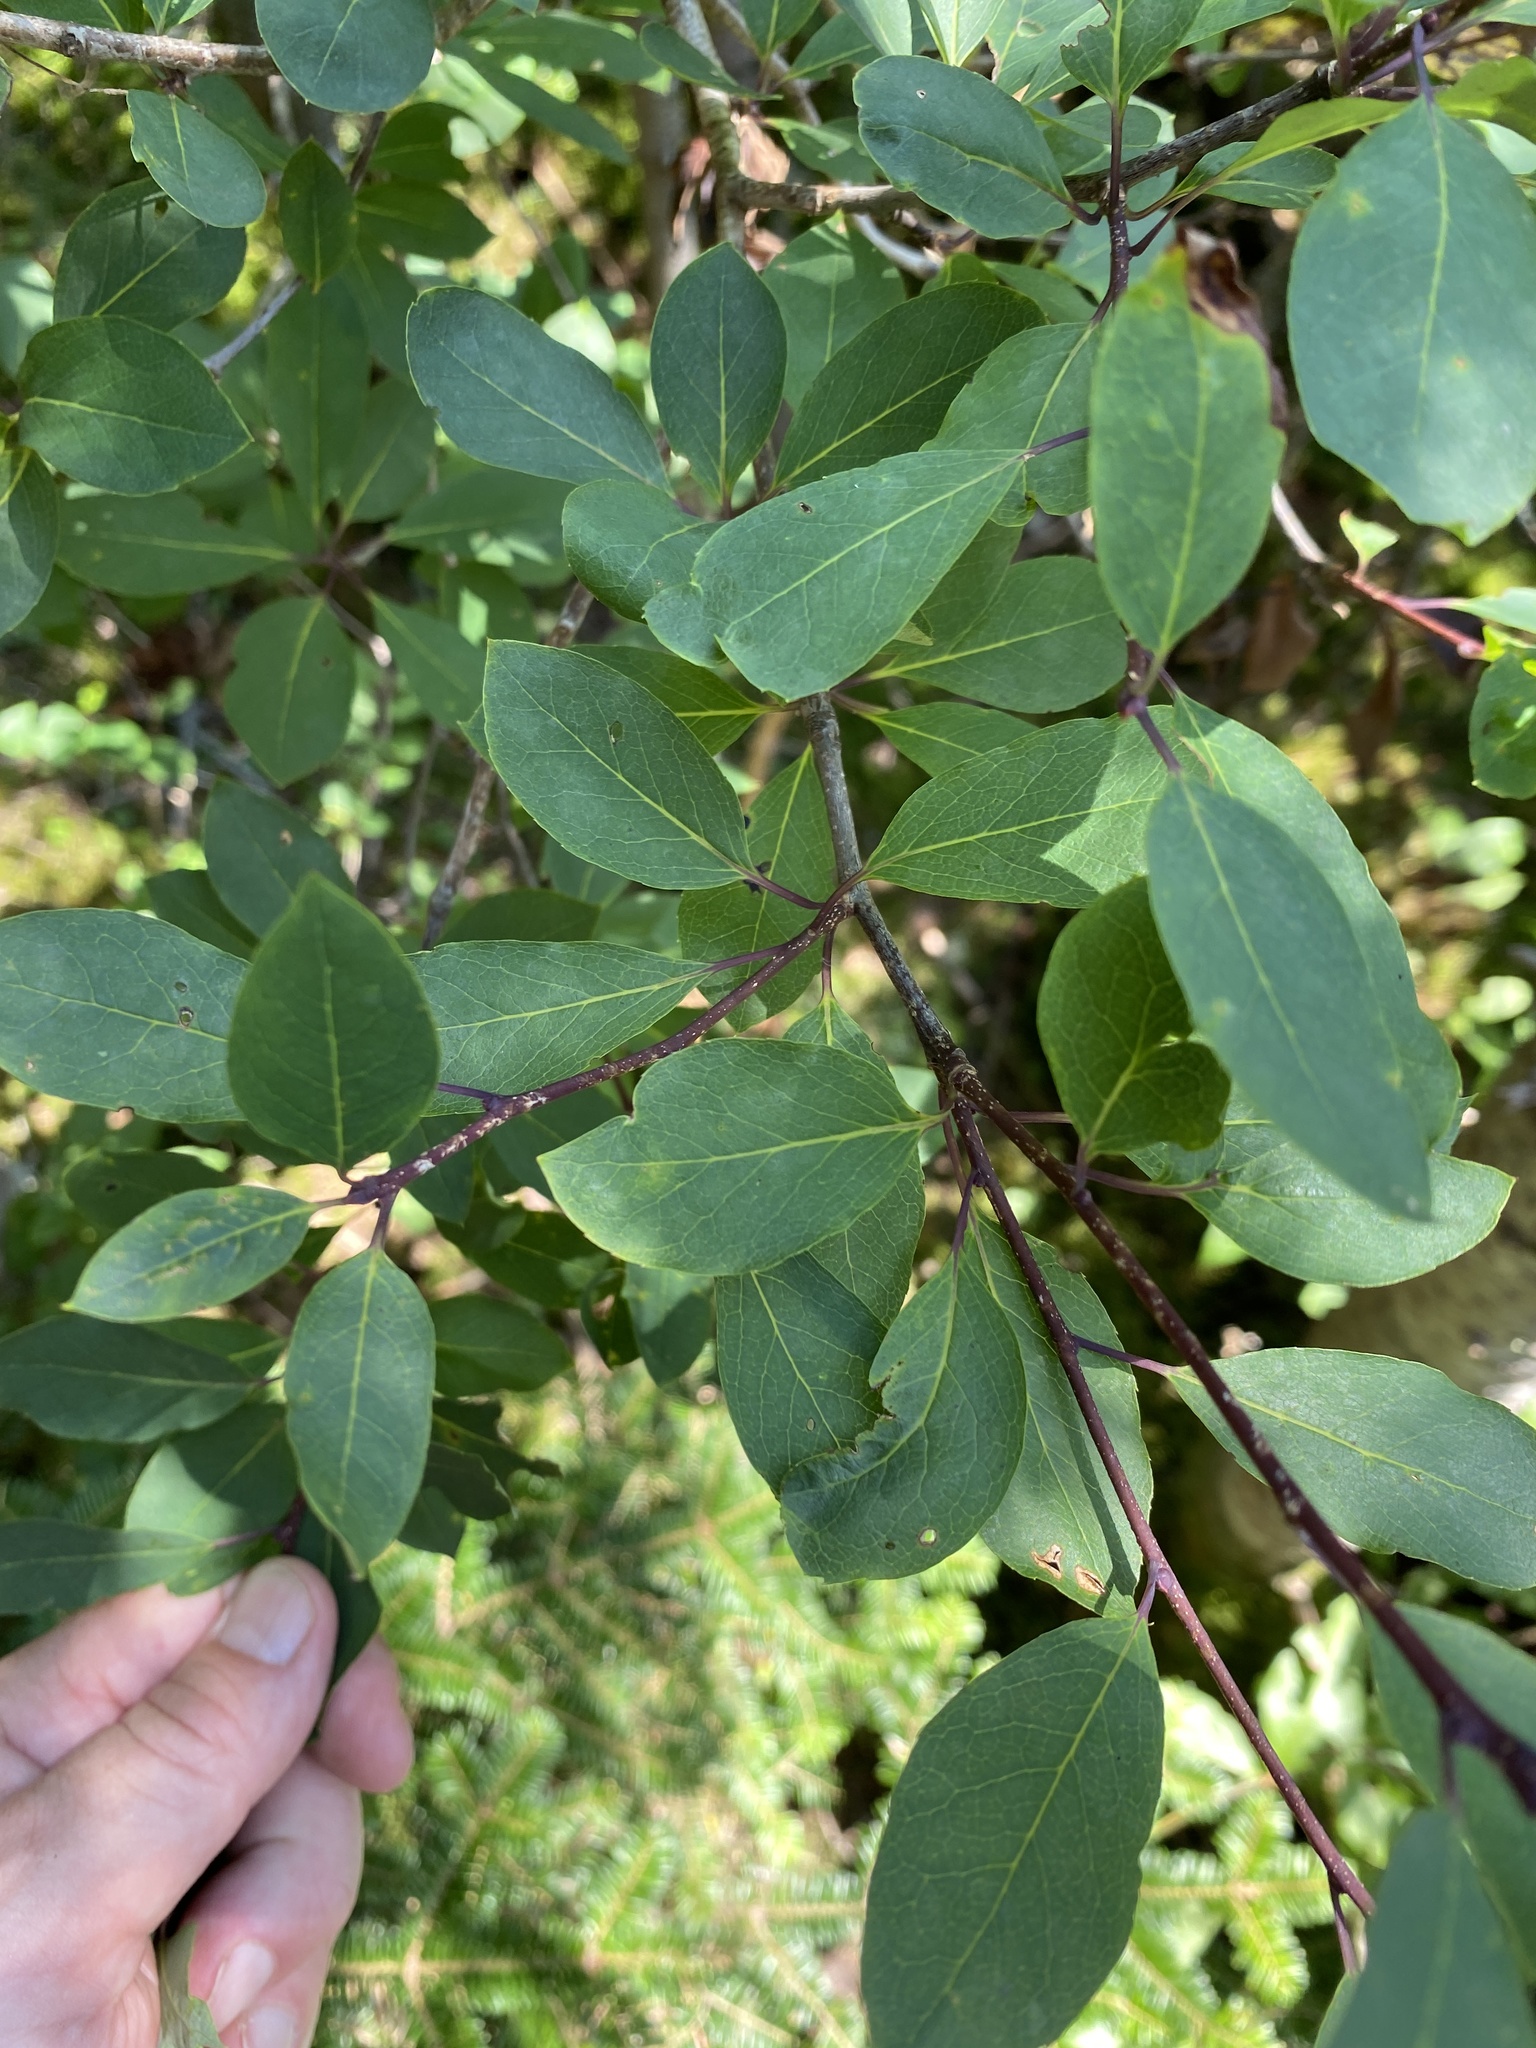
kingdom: Plantae
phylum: Tracheophyta
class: Magnoliopsida
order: Aquifoliales
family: Aquifoliaceae
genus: Ilex
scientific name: Ilex mucronata
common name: Catberry
